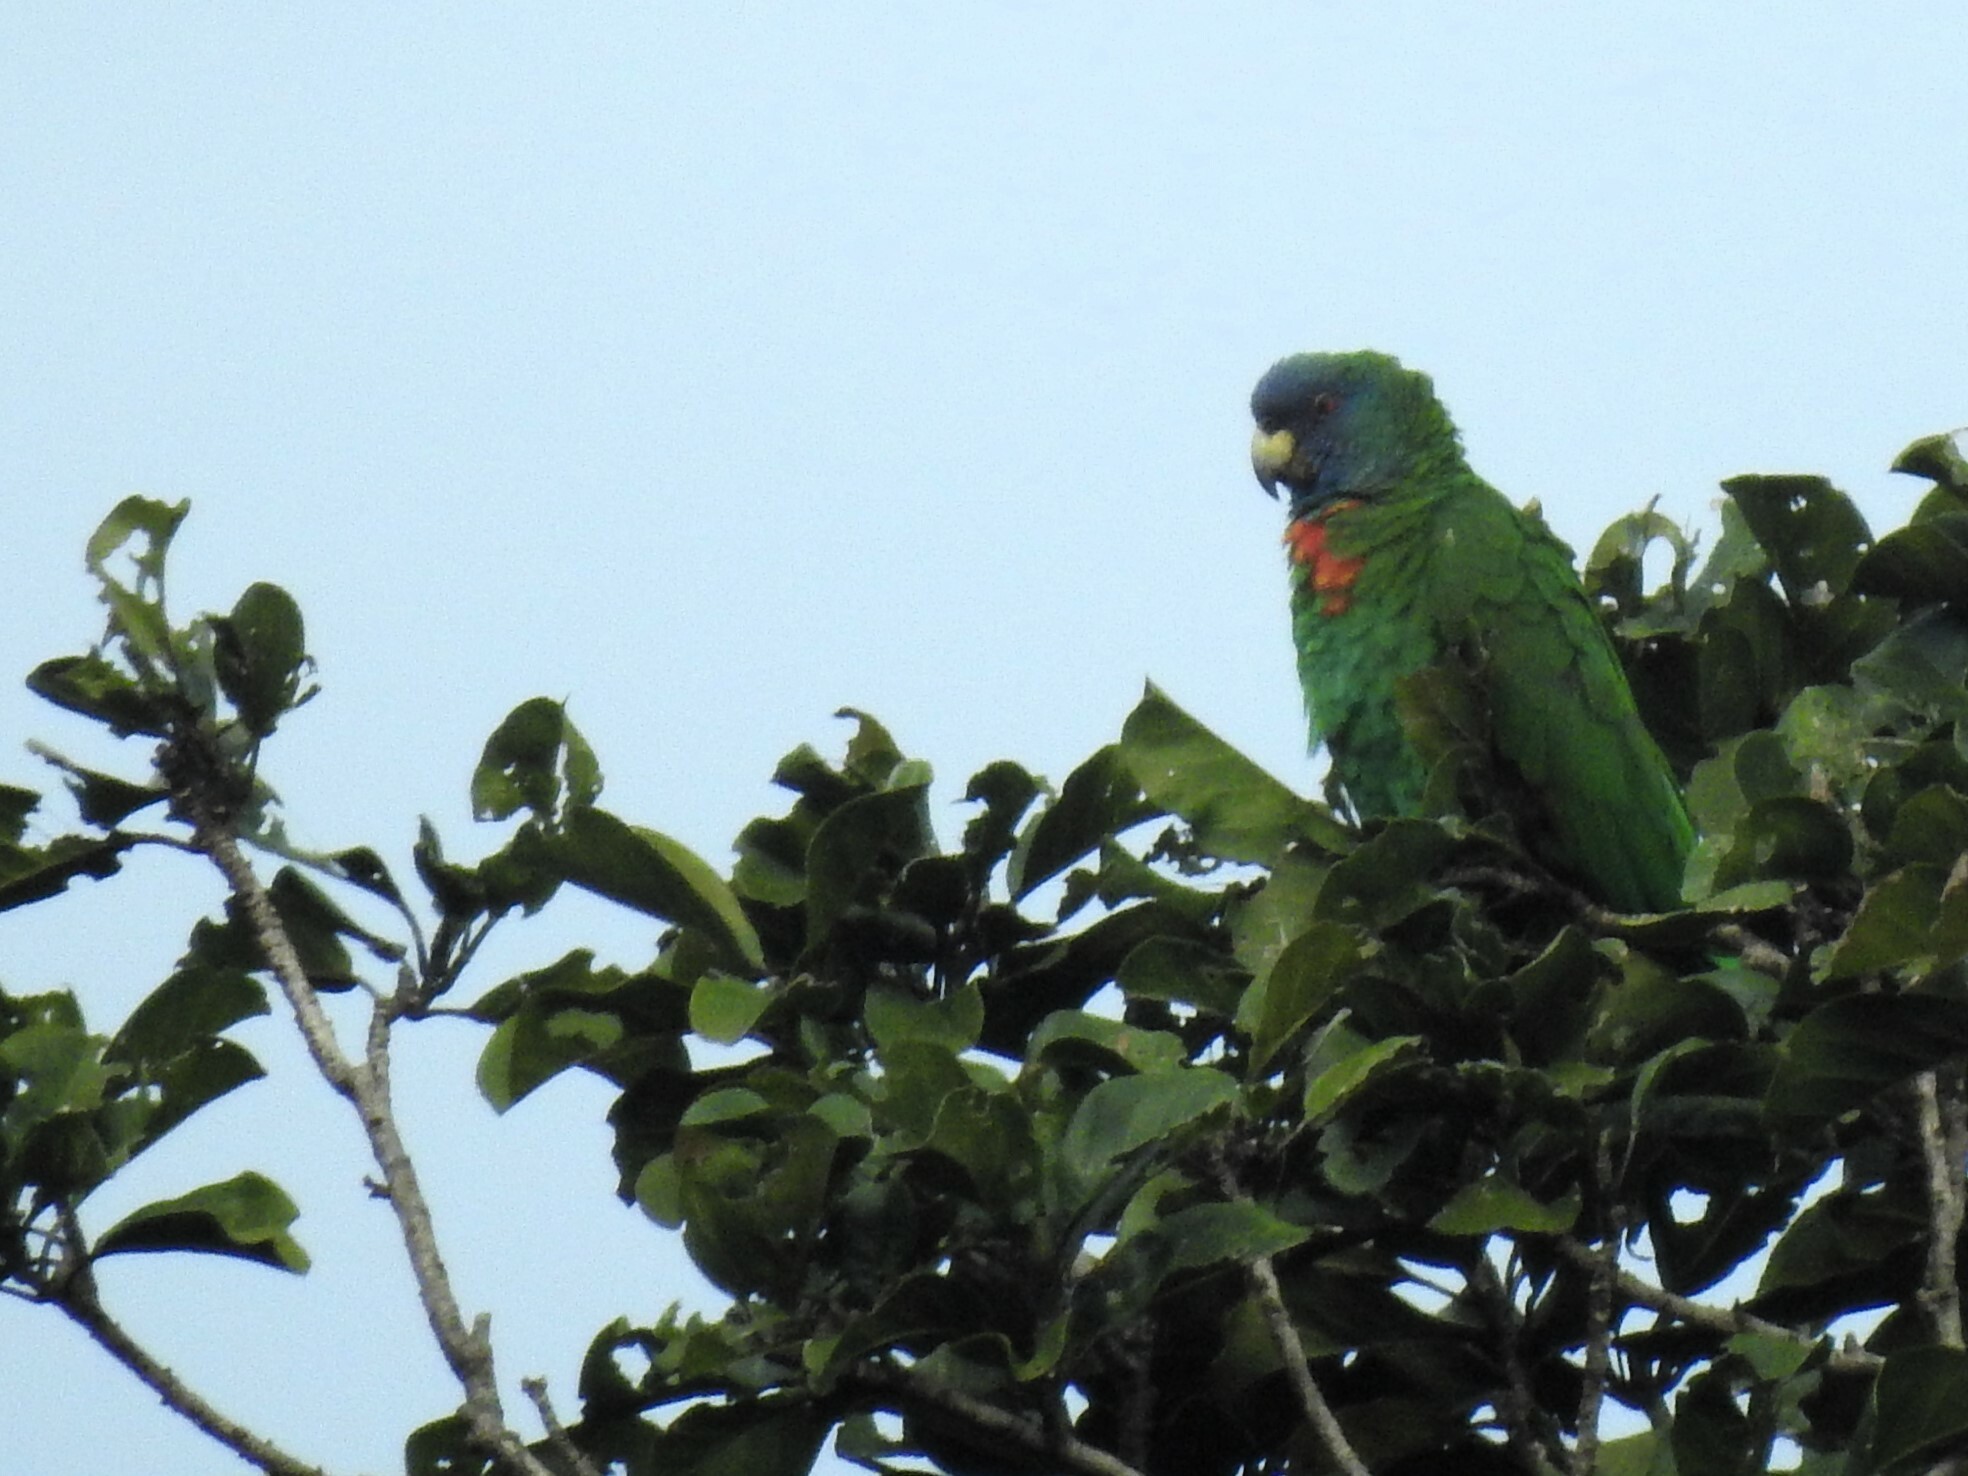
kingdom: Animalia
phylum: Chordata
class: Aves
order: Psittaciformes
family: Psittacidae
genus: Amazona
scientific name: Amazona arausiaca
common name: Red-necked amazon
